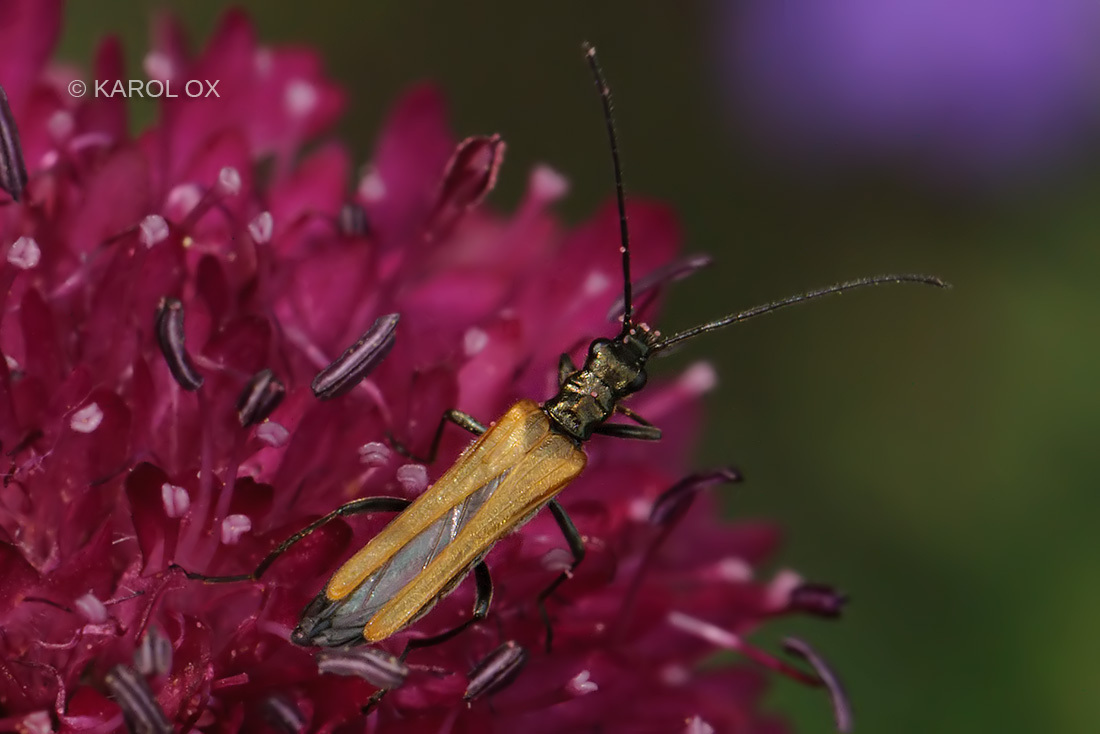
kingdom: Animalia
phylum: Arthropoda
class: Insecta
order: Coleoptera
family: Oedemeridae
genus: Oedemera
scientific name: Oedemera femorata
